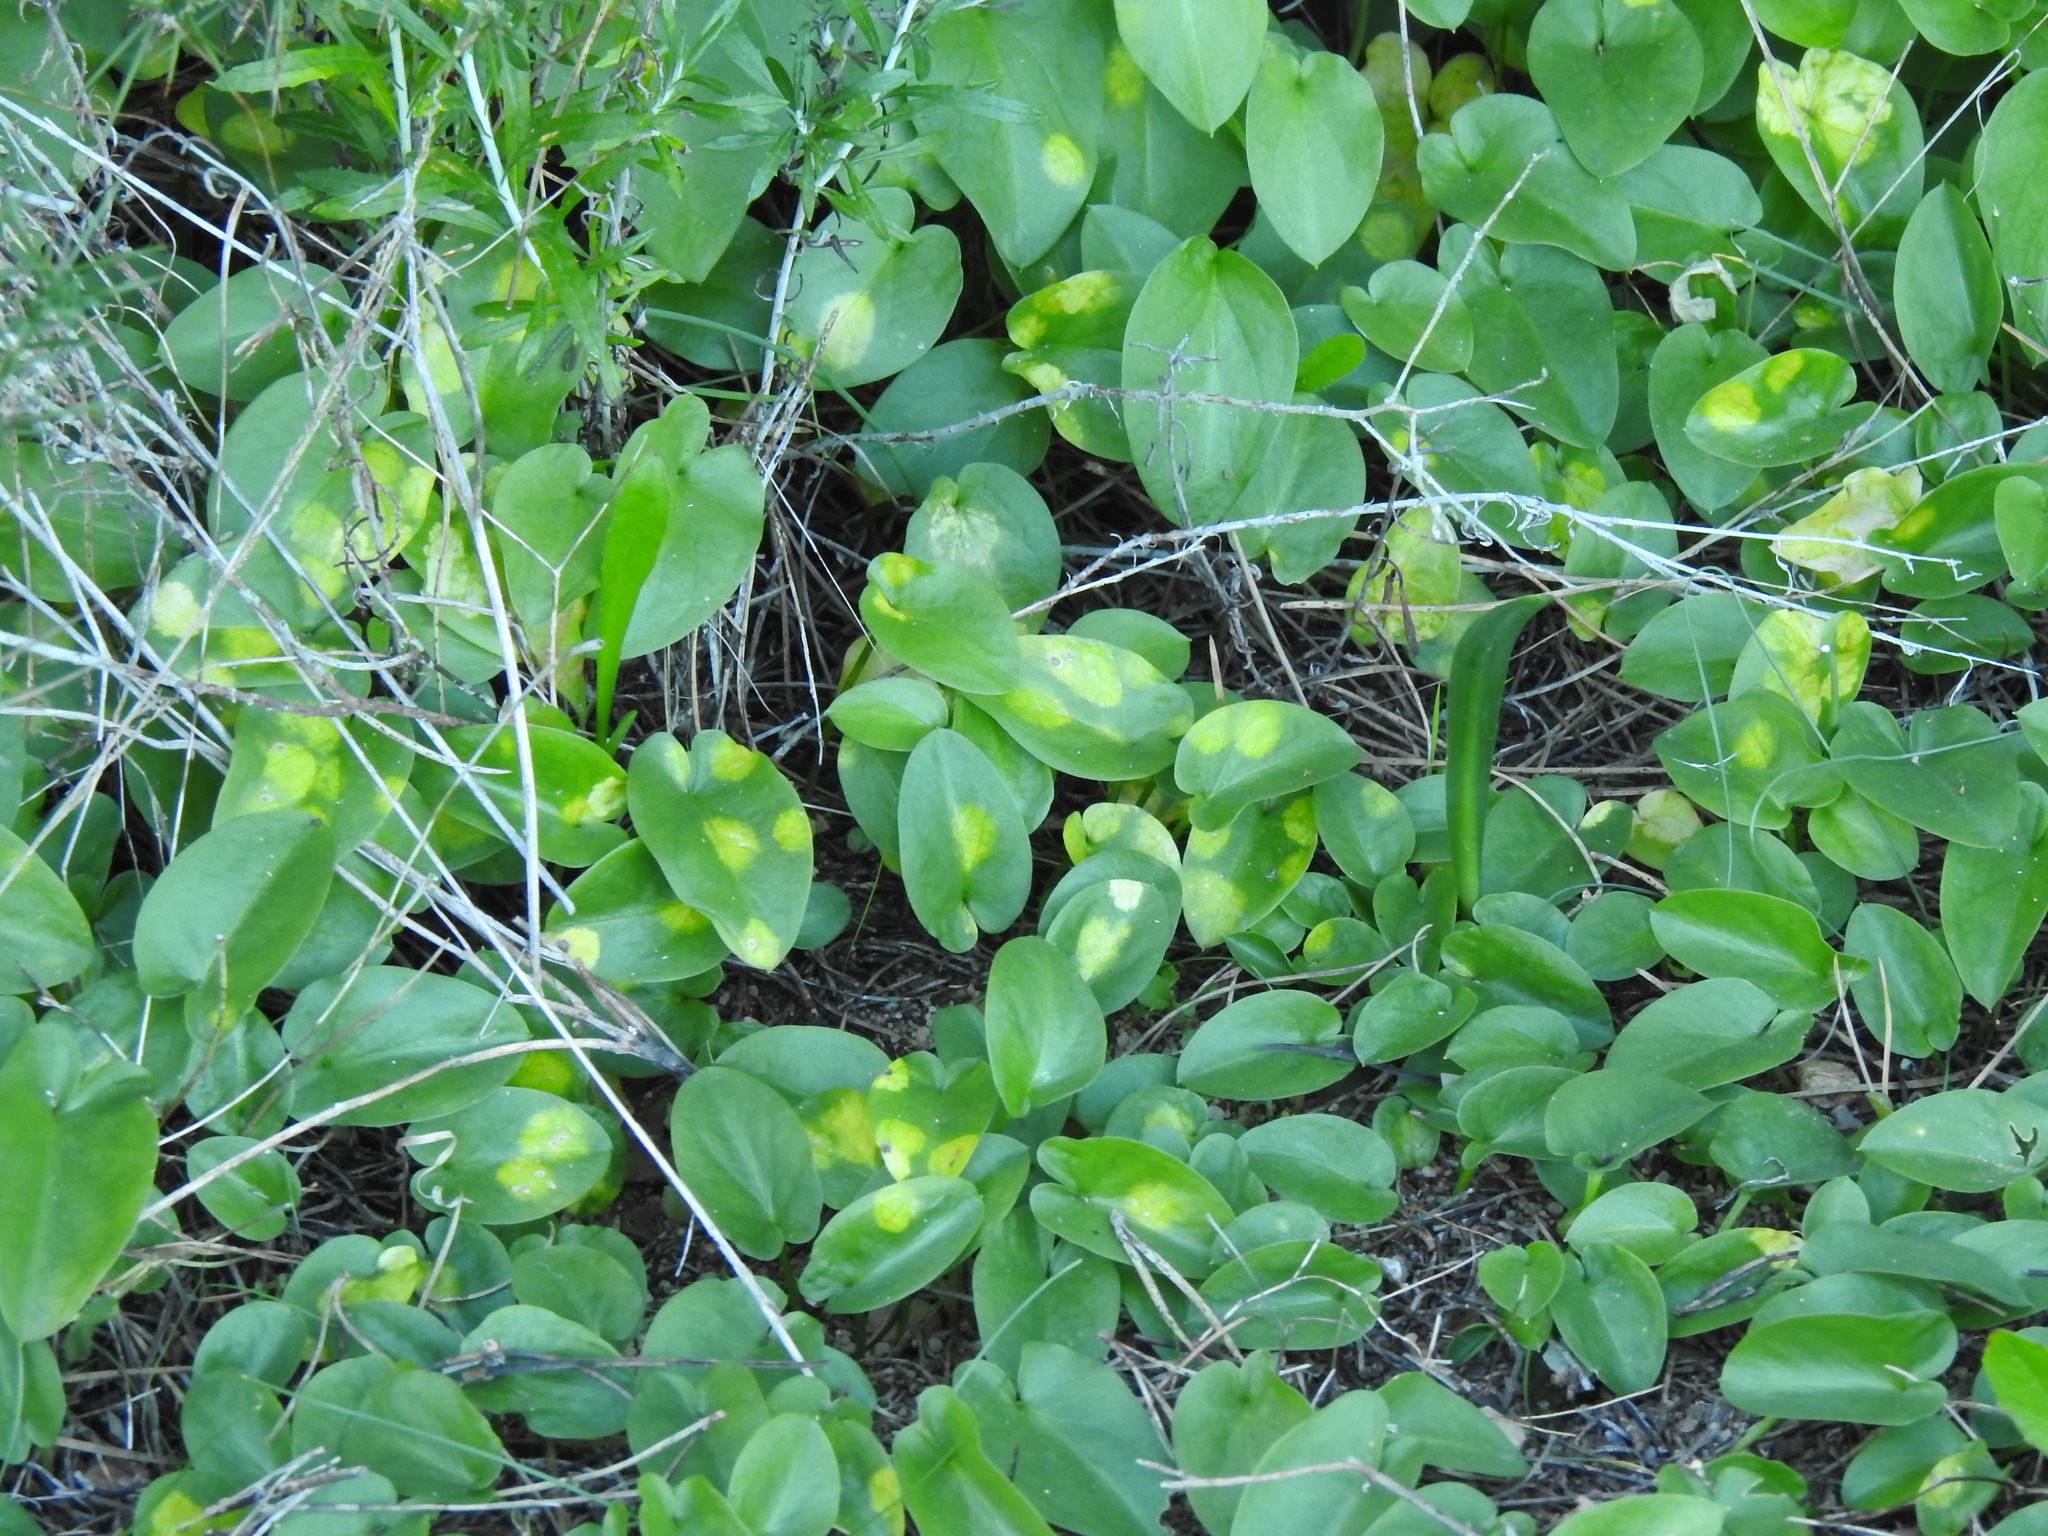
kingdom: Chromista
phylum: Ochrophyta
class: Xanthophyceae
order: Phyllosiphonales
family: Phyllosiphonaceae
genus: Phyllosiphon
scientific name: Phyllosiphon arisari
